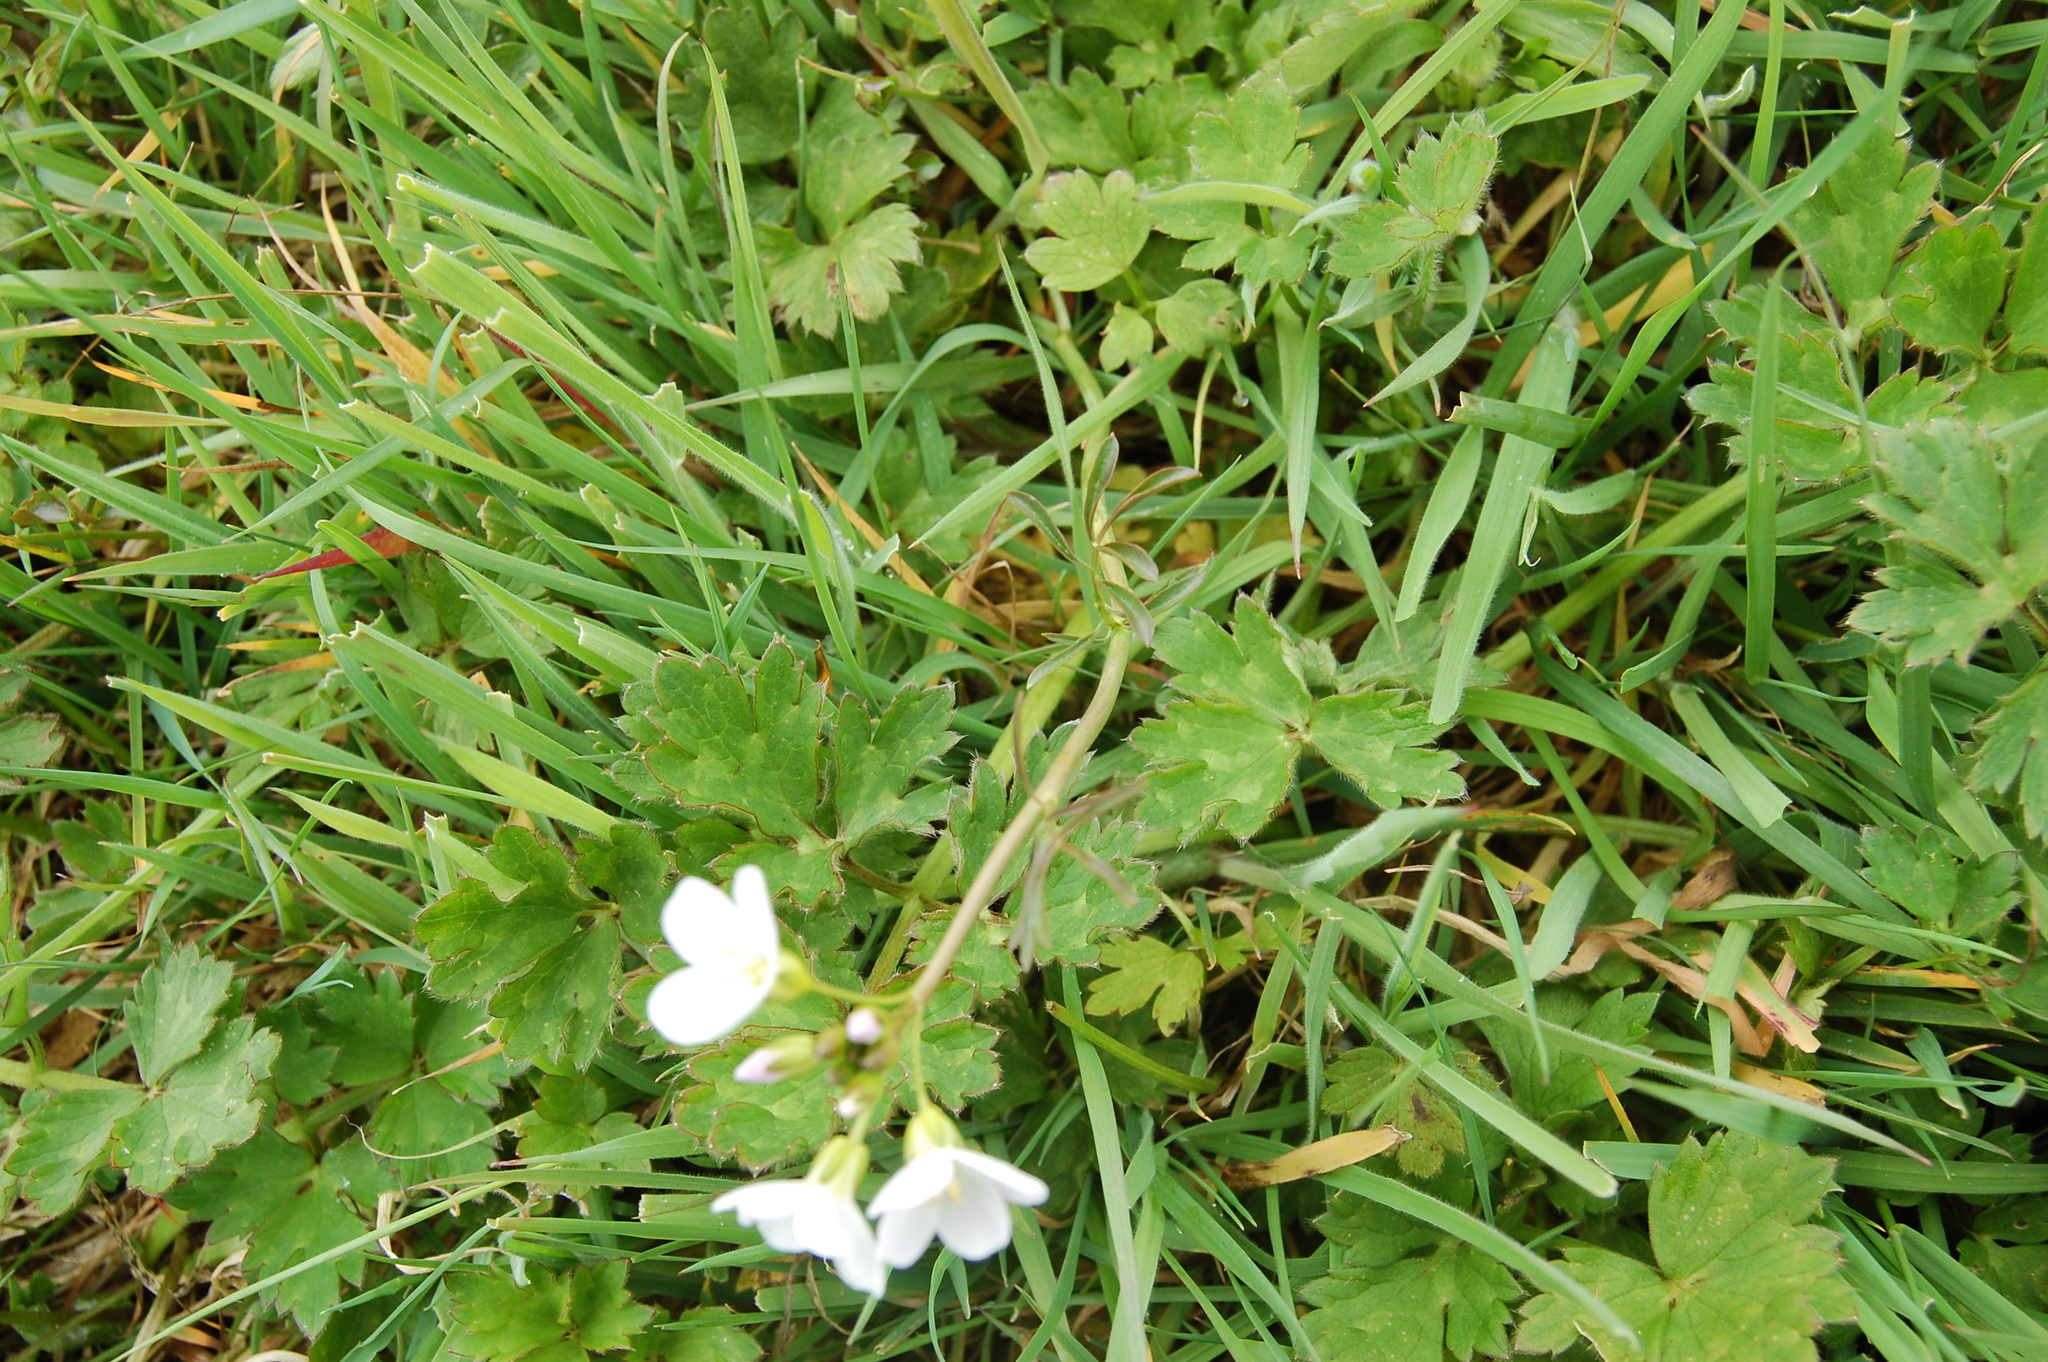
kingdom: Plantae
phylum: Tracheophyta
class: Magnoliopsida
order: Brassicales
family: Brassicaceae
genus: Cardamine
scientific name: Cardamine pratensis
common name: Cuckoo flower
